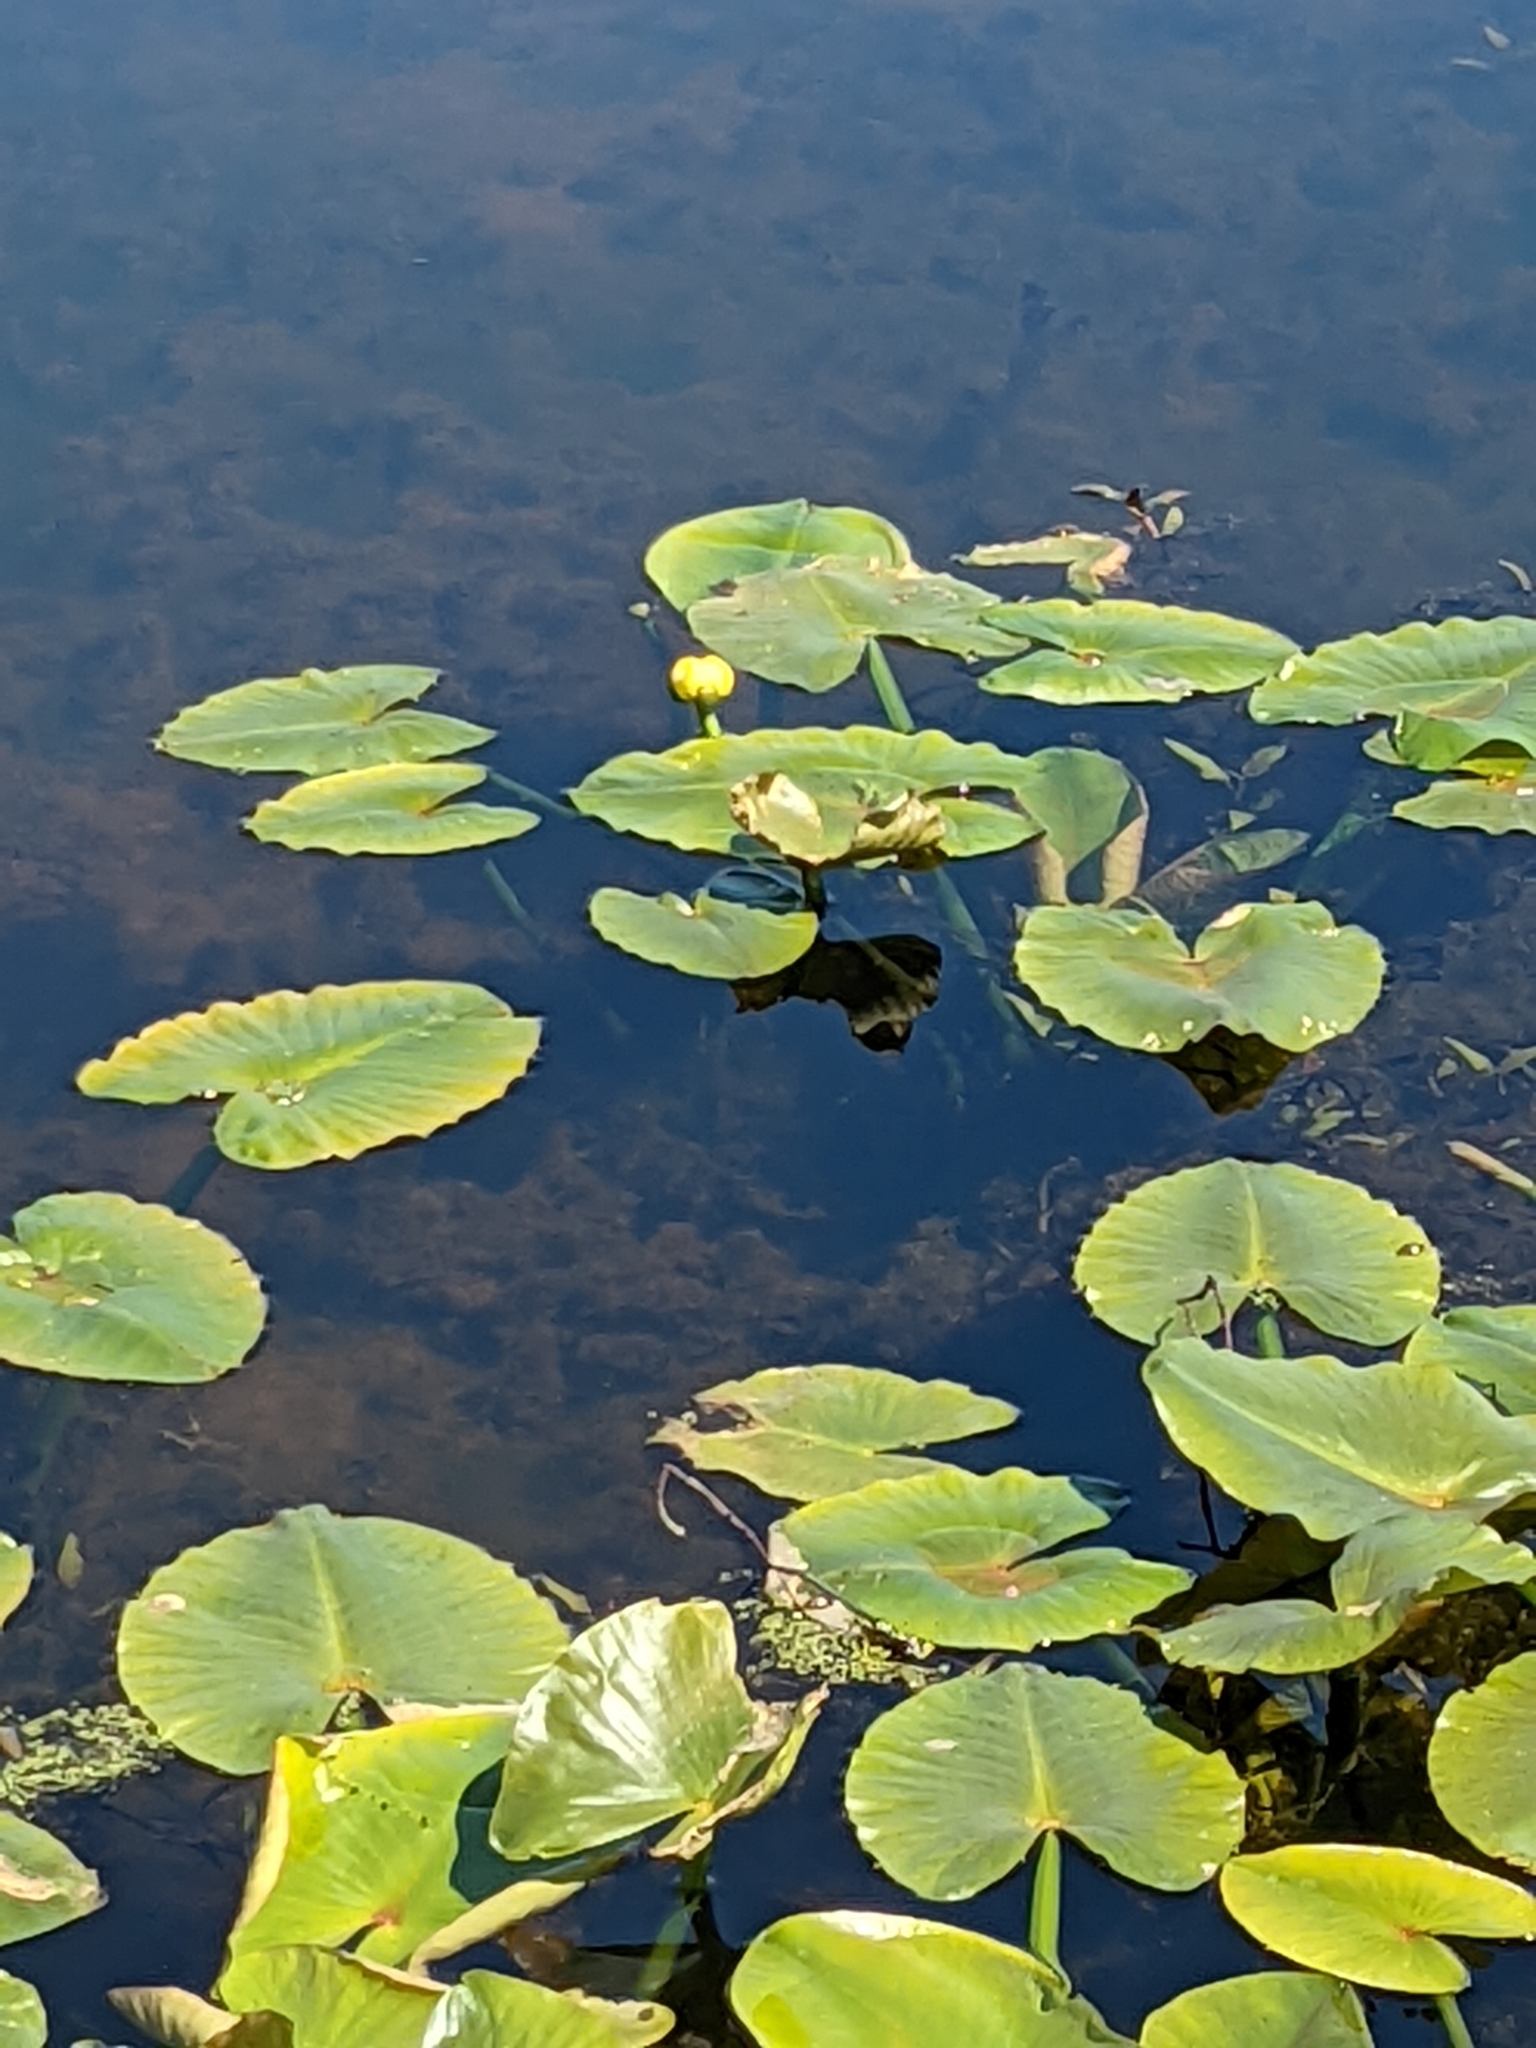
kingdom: Plantae
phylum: Tracheophyta
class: Magnoliopsida
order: Nymphaeales
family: Nymphaeaceae
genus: Nuphar
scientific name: Nuphar advena
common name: Spatter-dock
